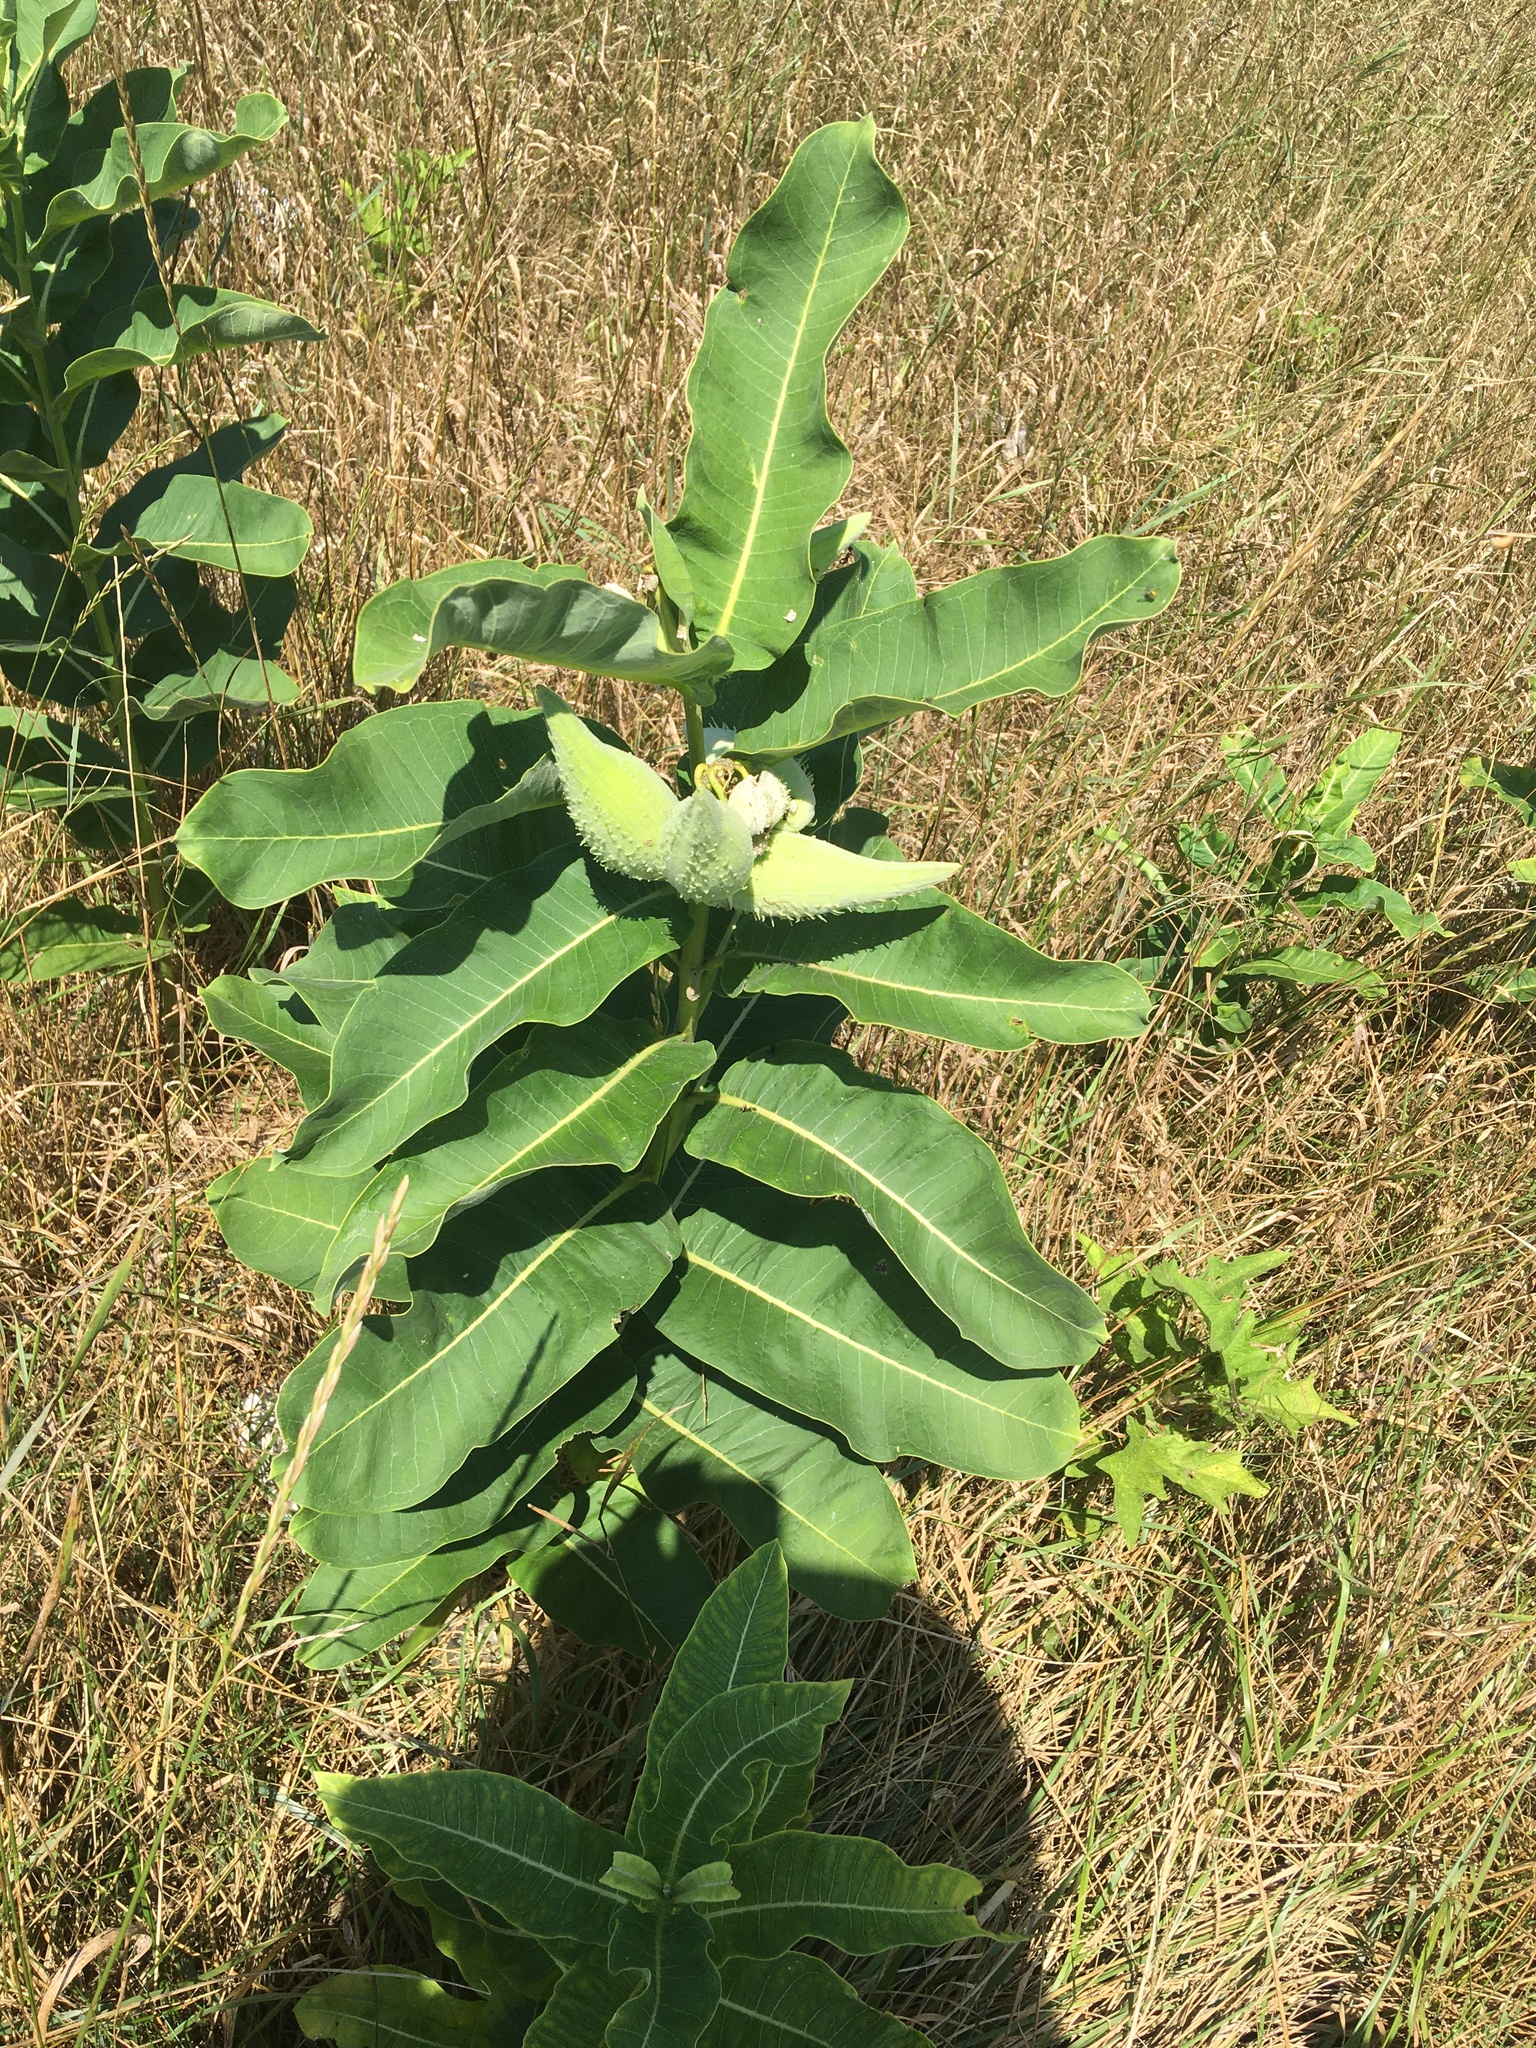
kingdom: Plantae
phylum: Tracheophyta
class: Magnoliopsida
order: Gentianales
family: Apocynaceae
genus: Asclepias
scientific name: Asclepias syriaca
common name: Common milkweed
